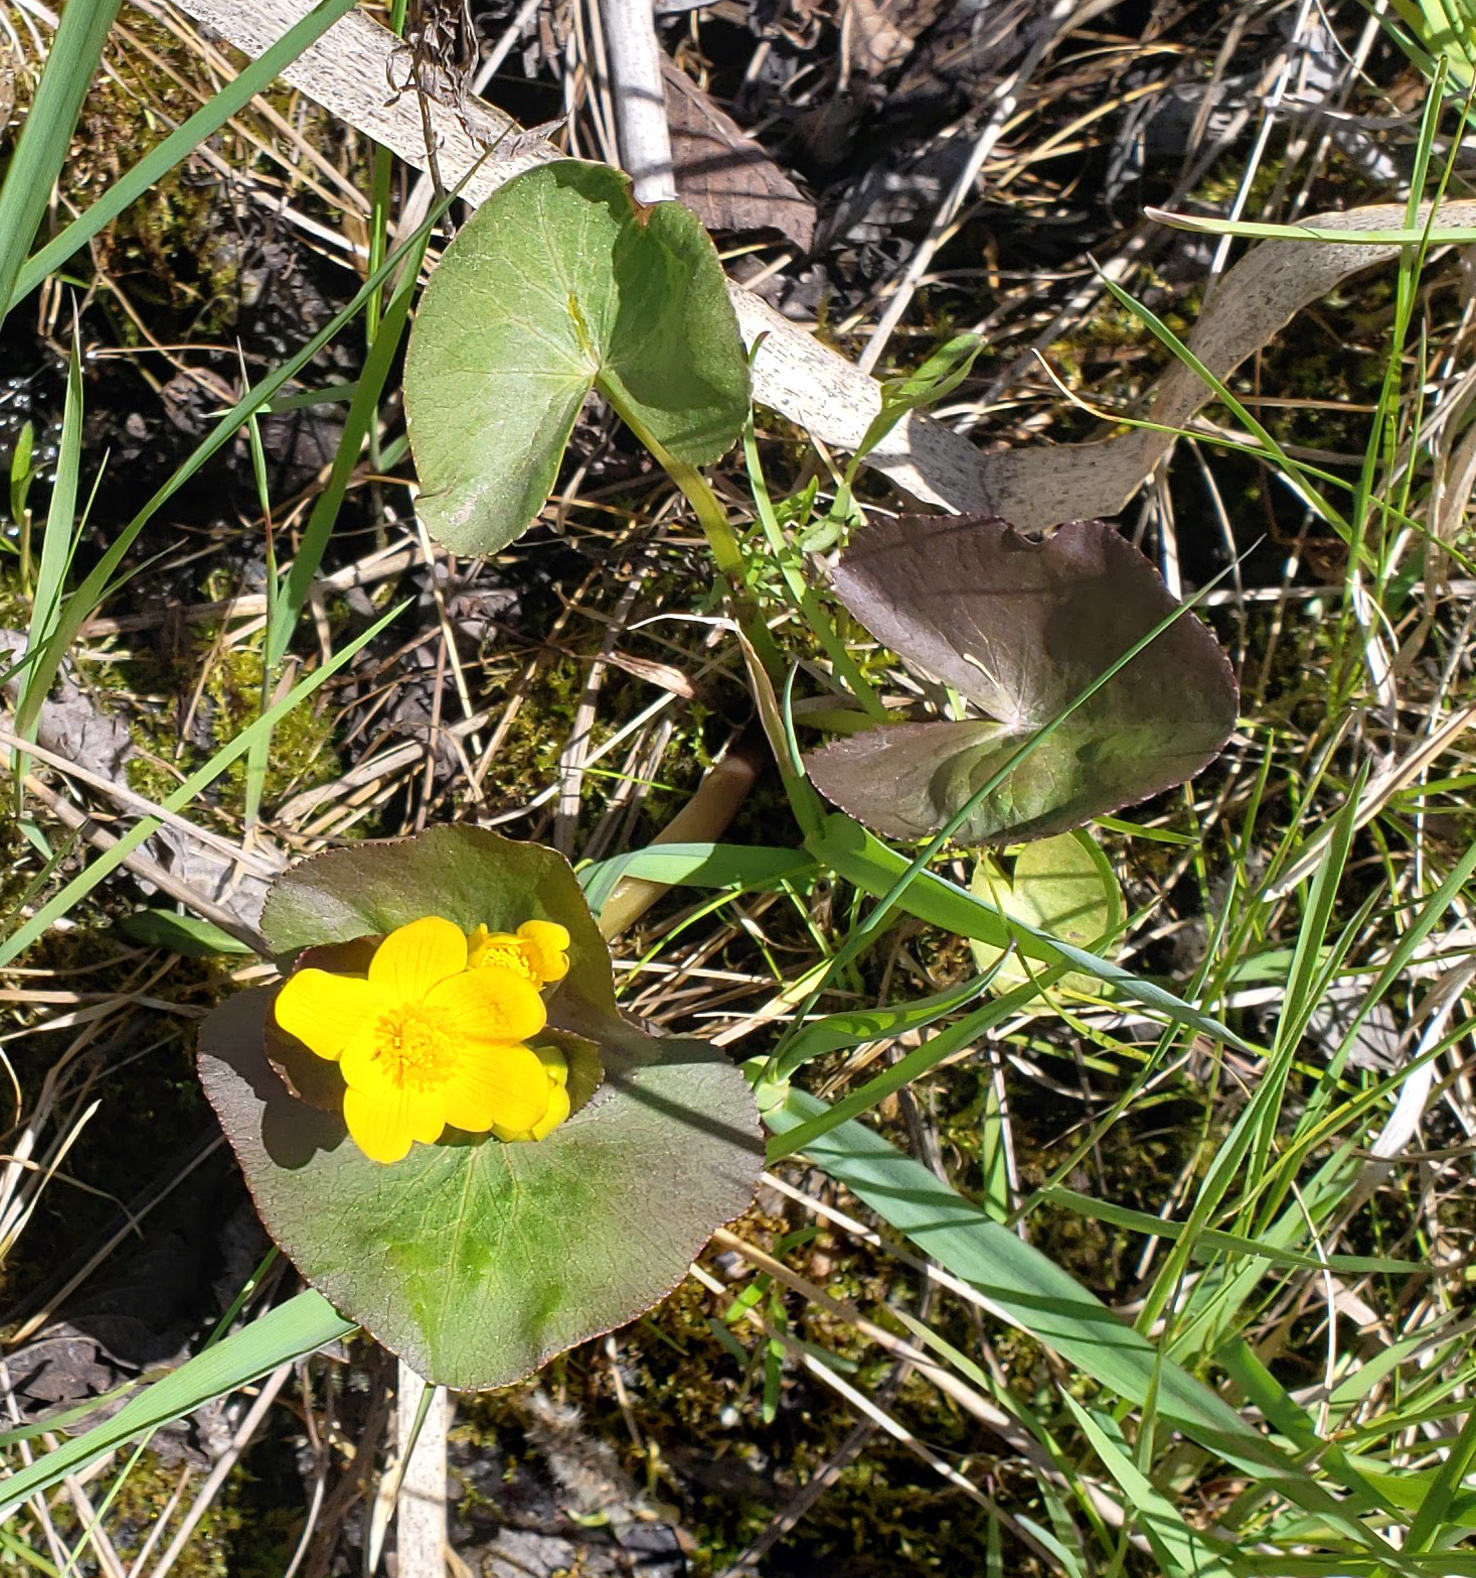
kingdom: Plantae
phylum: Tracheophyta
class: Magnoliopsida
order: Ranunculales
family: Ranunculaceae
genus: Caltha
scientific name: Caltha palustris
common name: Marsh marigold
